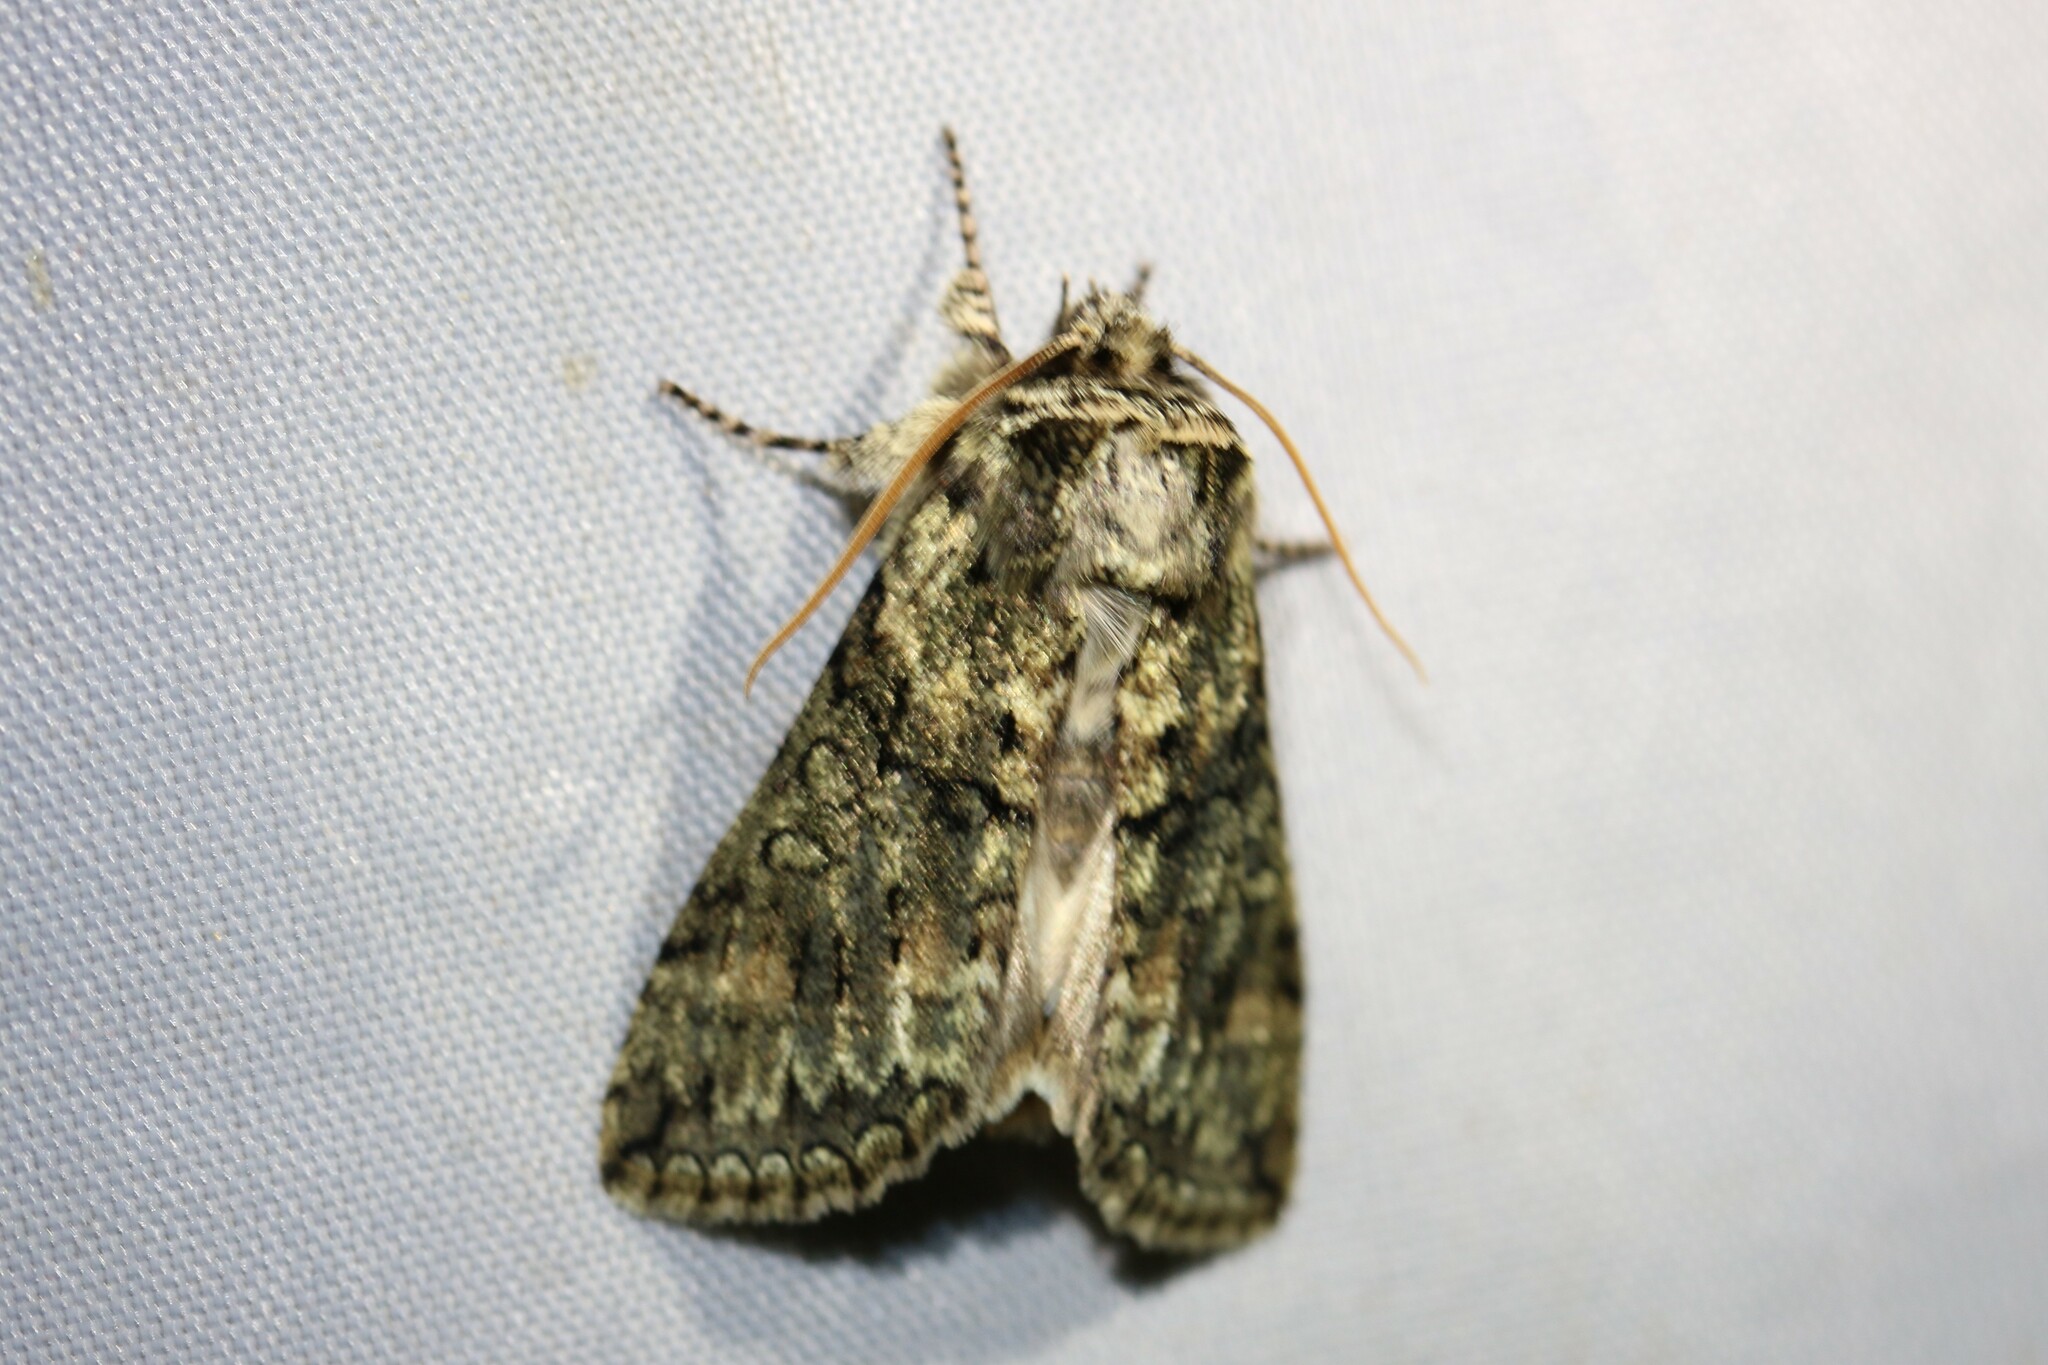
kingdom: Animalia
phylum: Arthropoda
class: Insecta
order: Lepidoptera
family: Drepanidae
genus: Polyploca
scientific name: Polyploca ridens
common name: Frosted green
